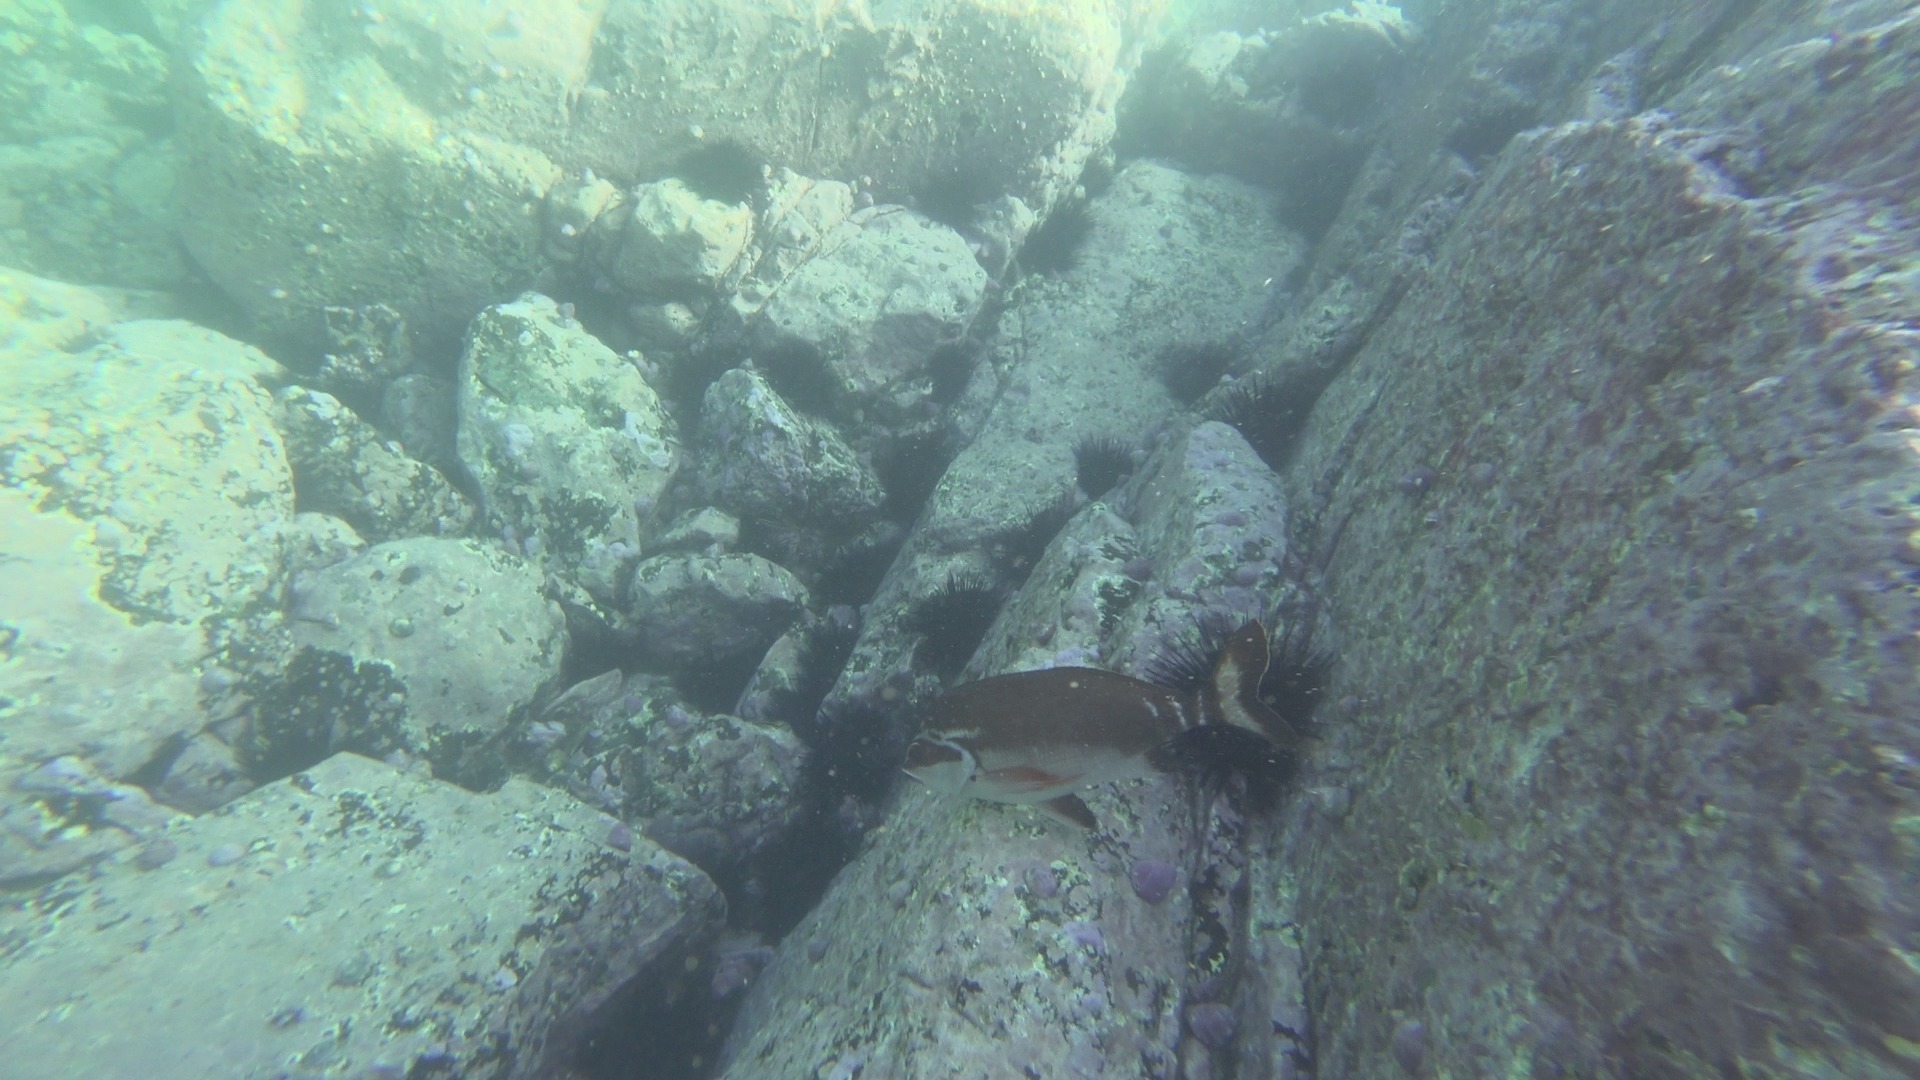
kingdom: Animalia
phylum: Chordata
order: Perciformes
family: Latridae
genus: Morwong
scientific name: Morwong fuscus
